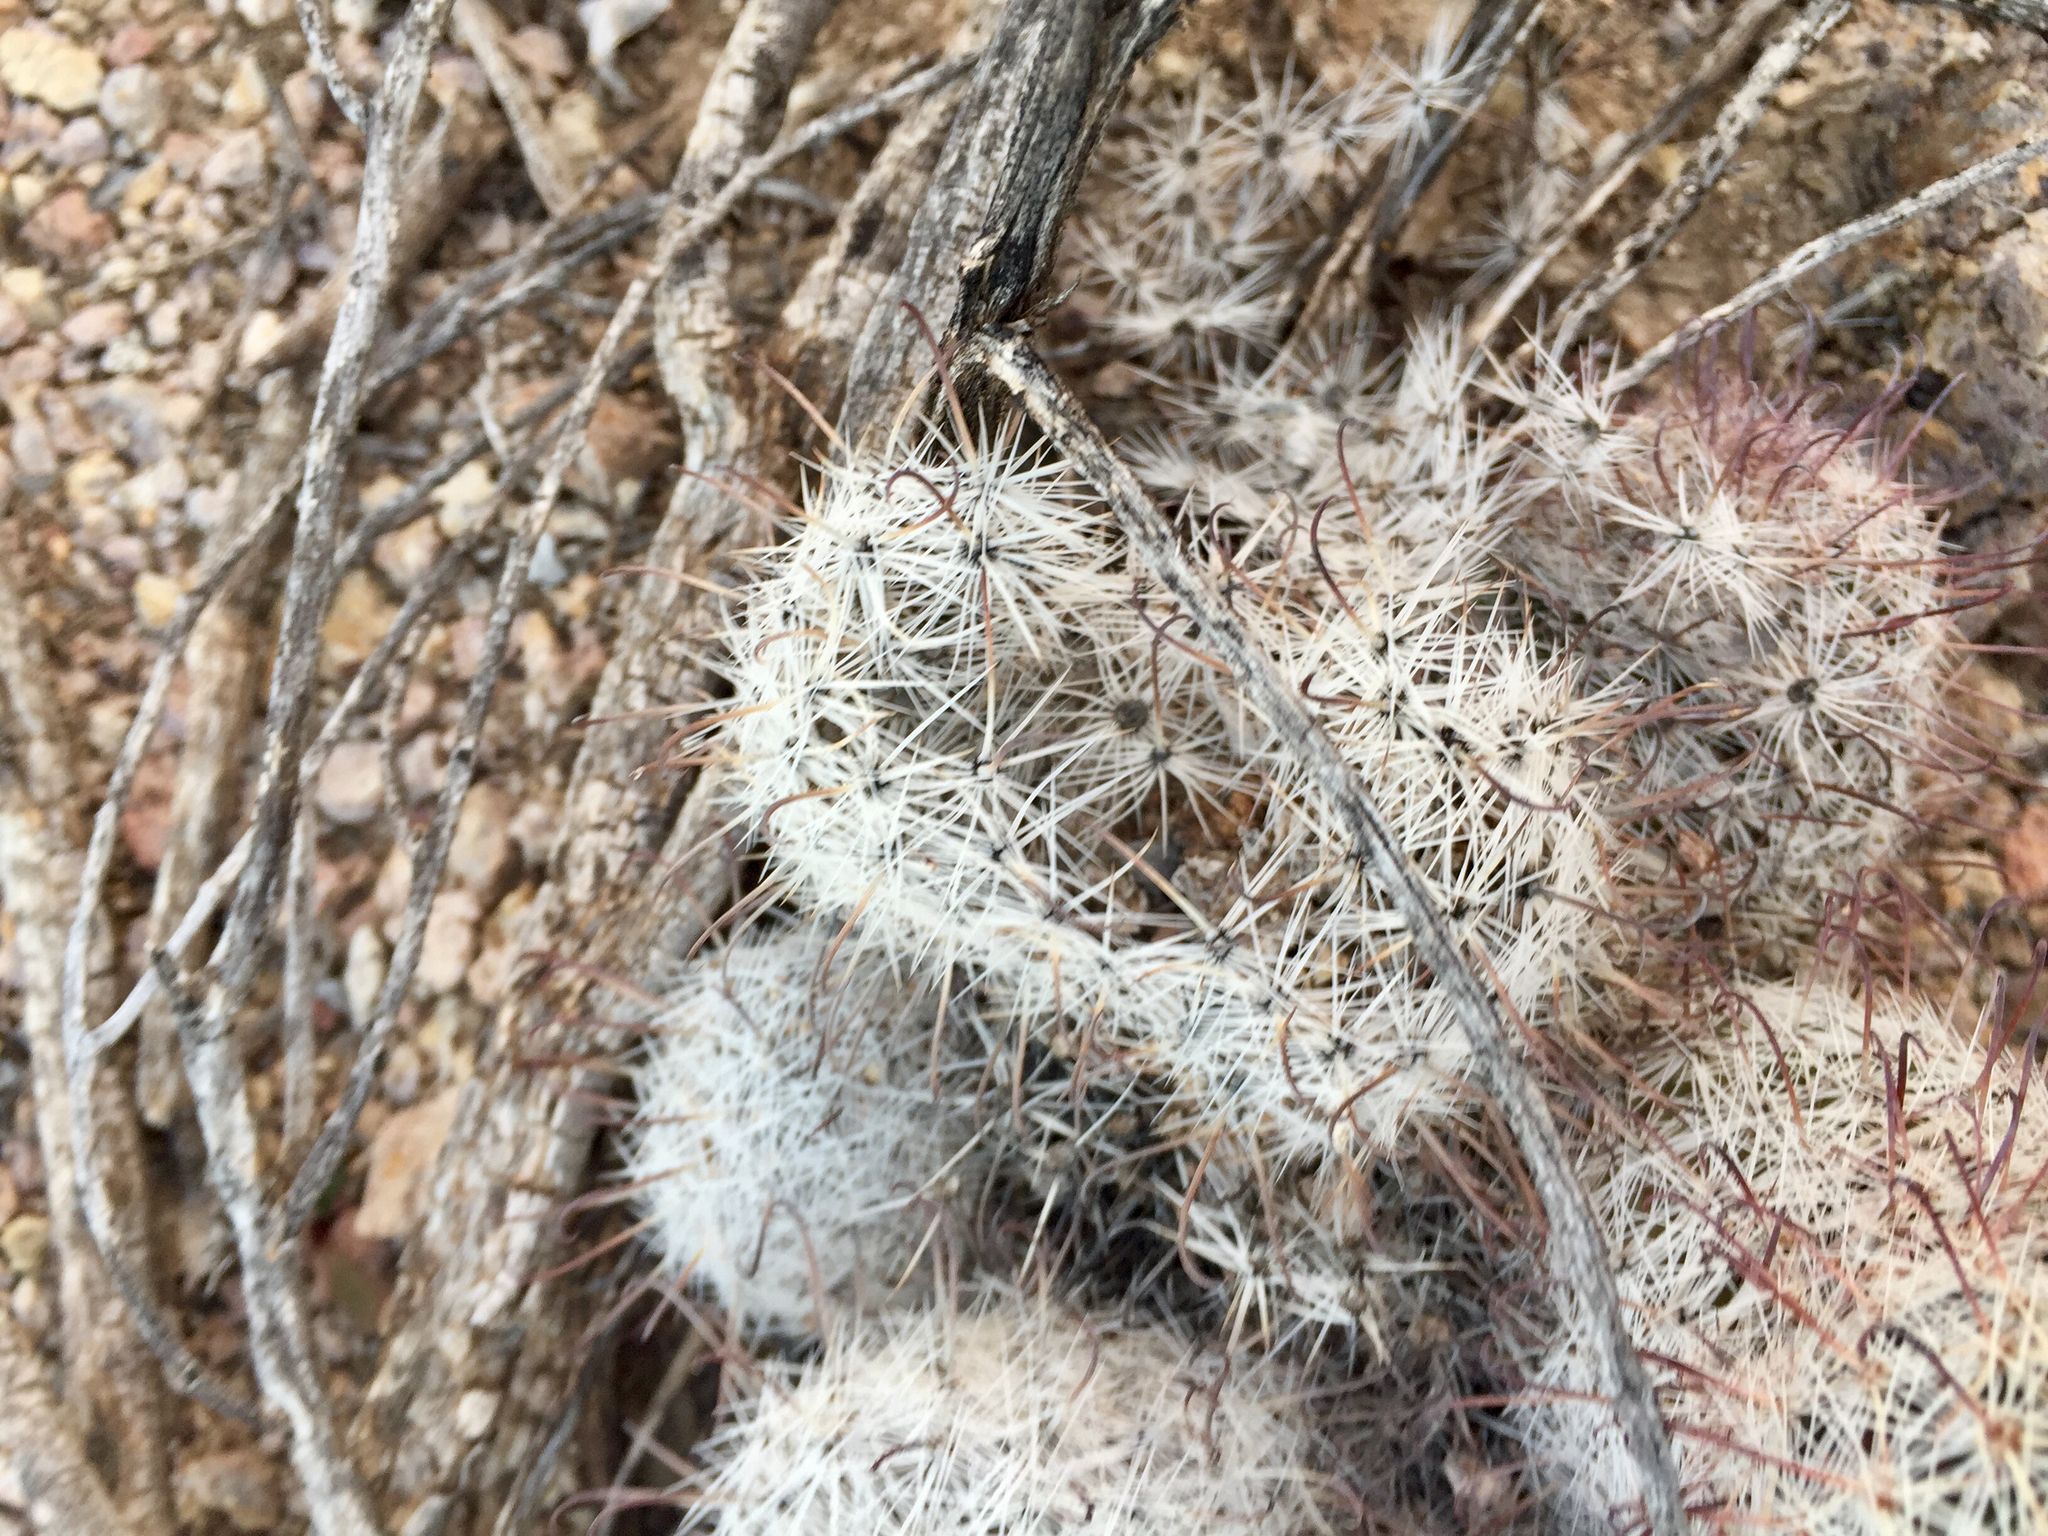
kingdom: Plantae
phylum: Tracheophyta
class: Magnoliopsida
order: Caryophyllales
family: Cactaceae
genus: Cochemiea
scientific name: Cochemiea grahamii
